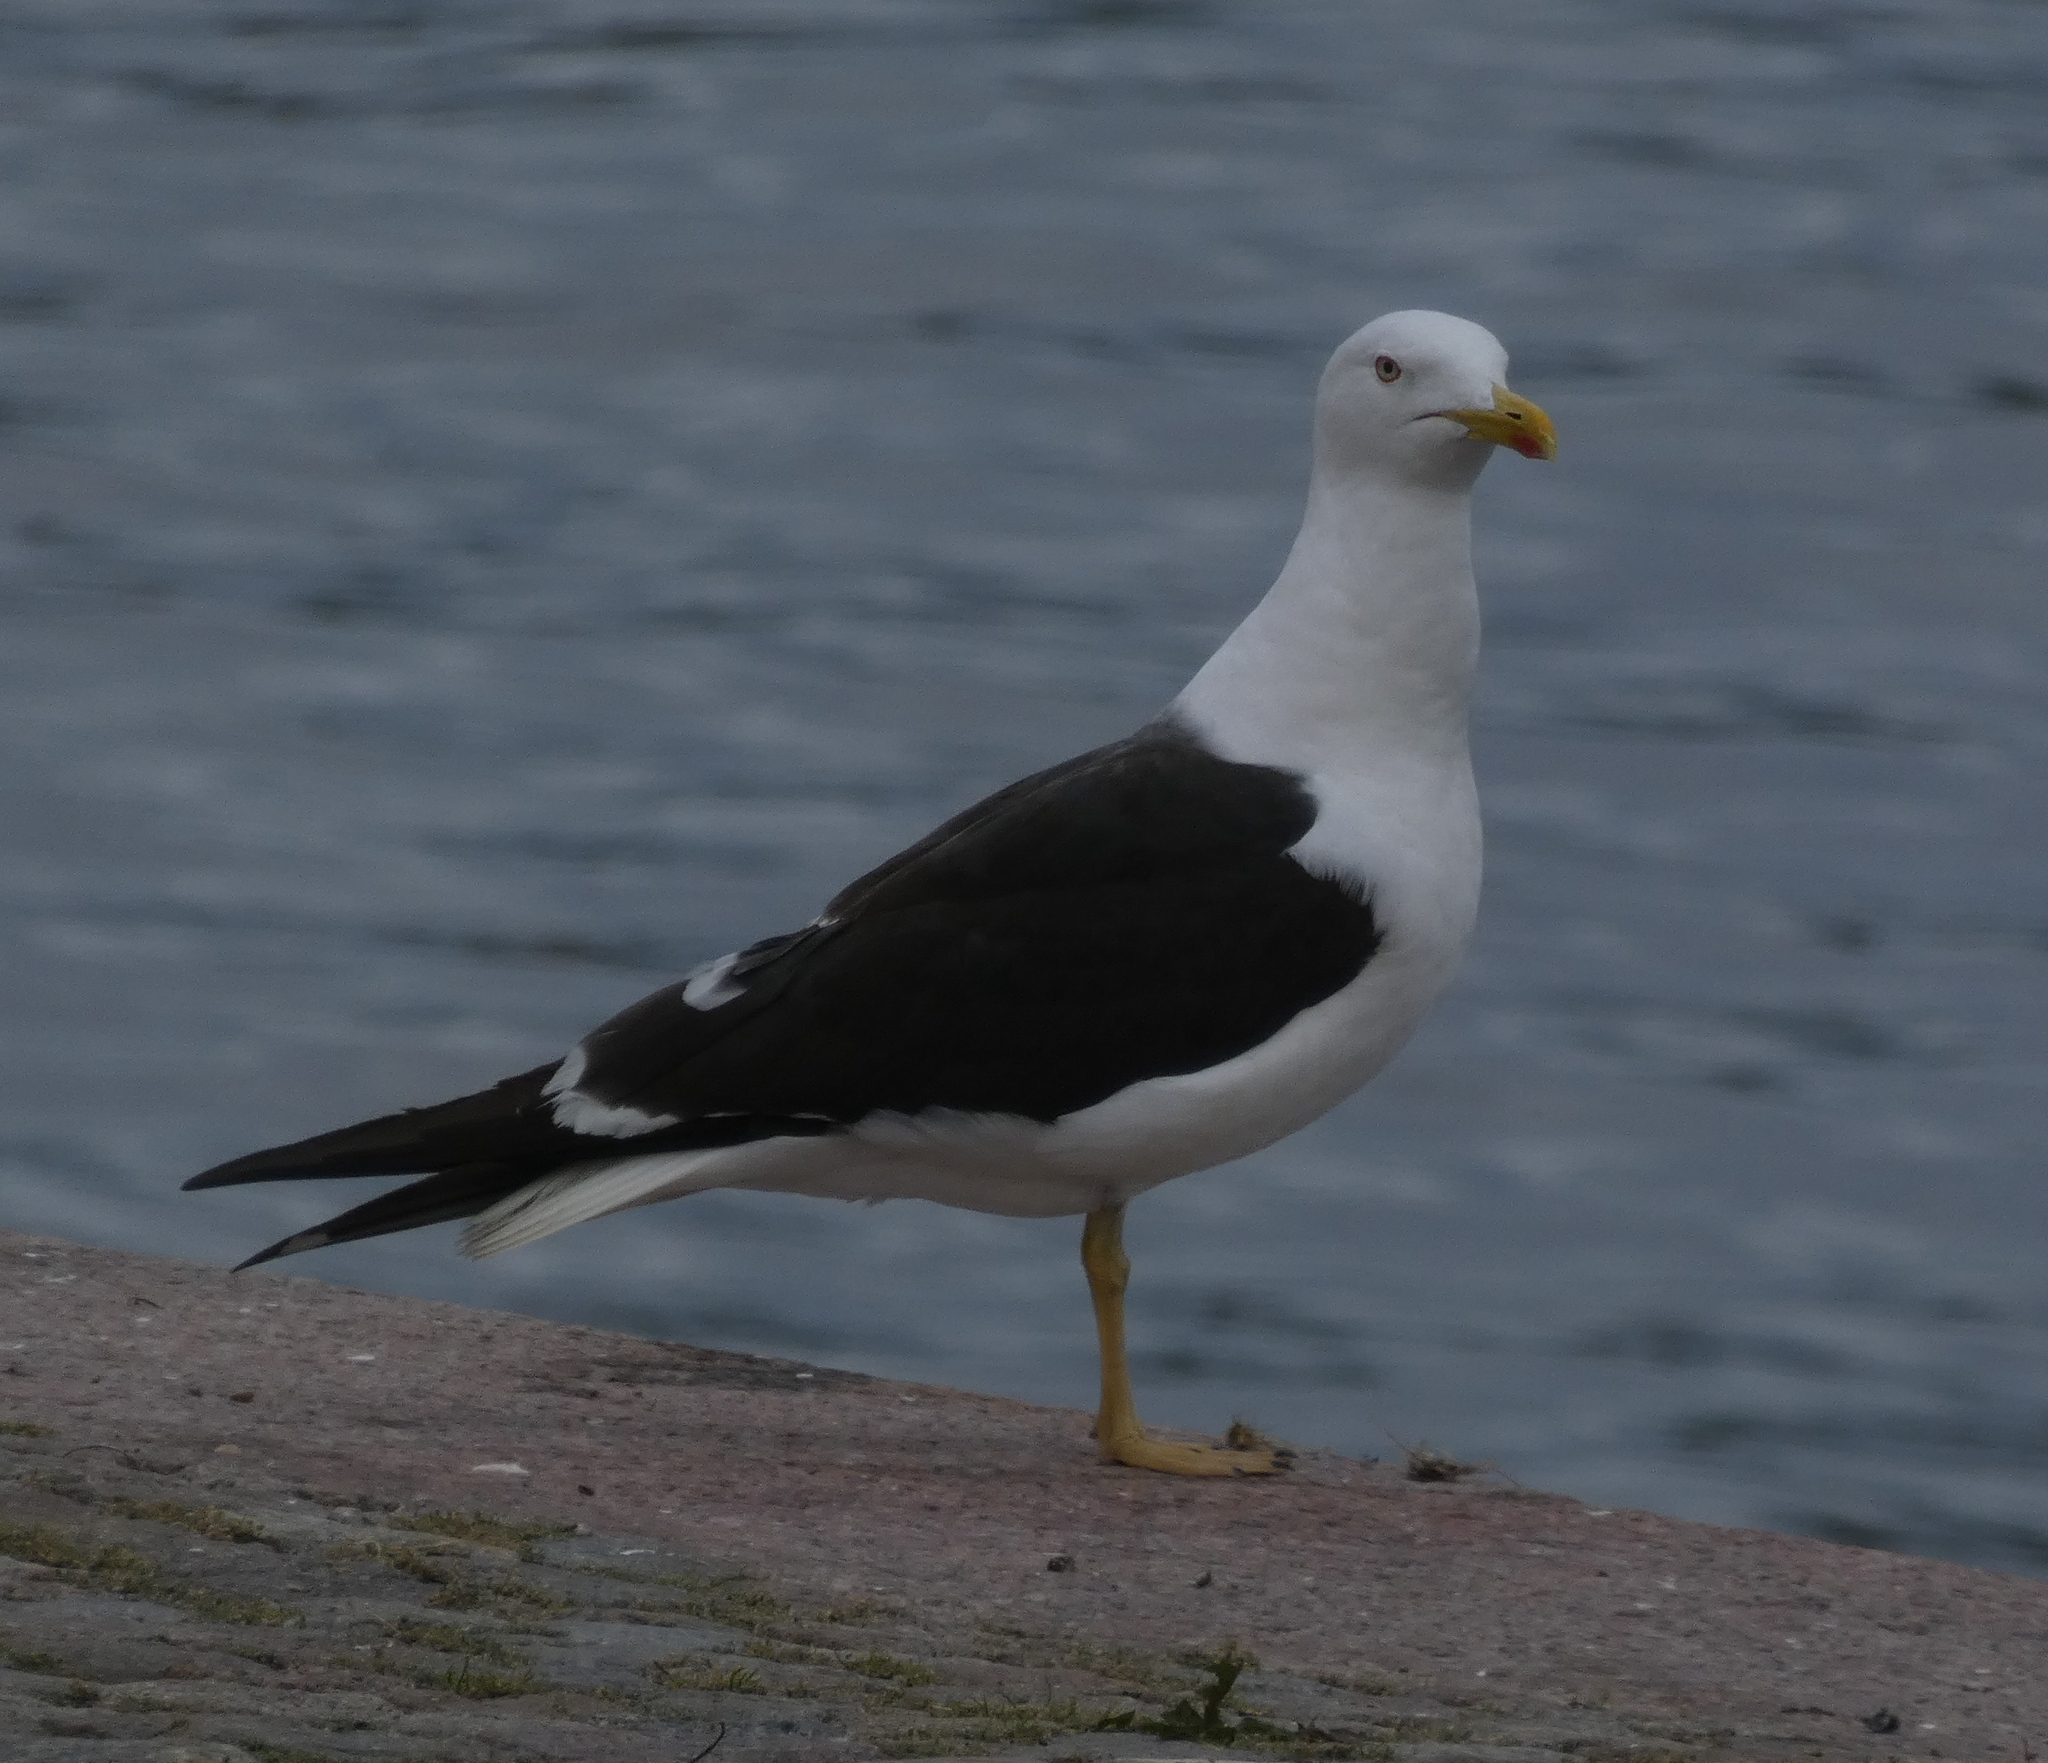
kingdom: Animalia
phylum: Chordata
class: Aves
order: Charadriiformes
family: Laridae
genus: Larus
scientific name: Larus fuscus
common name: Lesser black-backed gull
